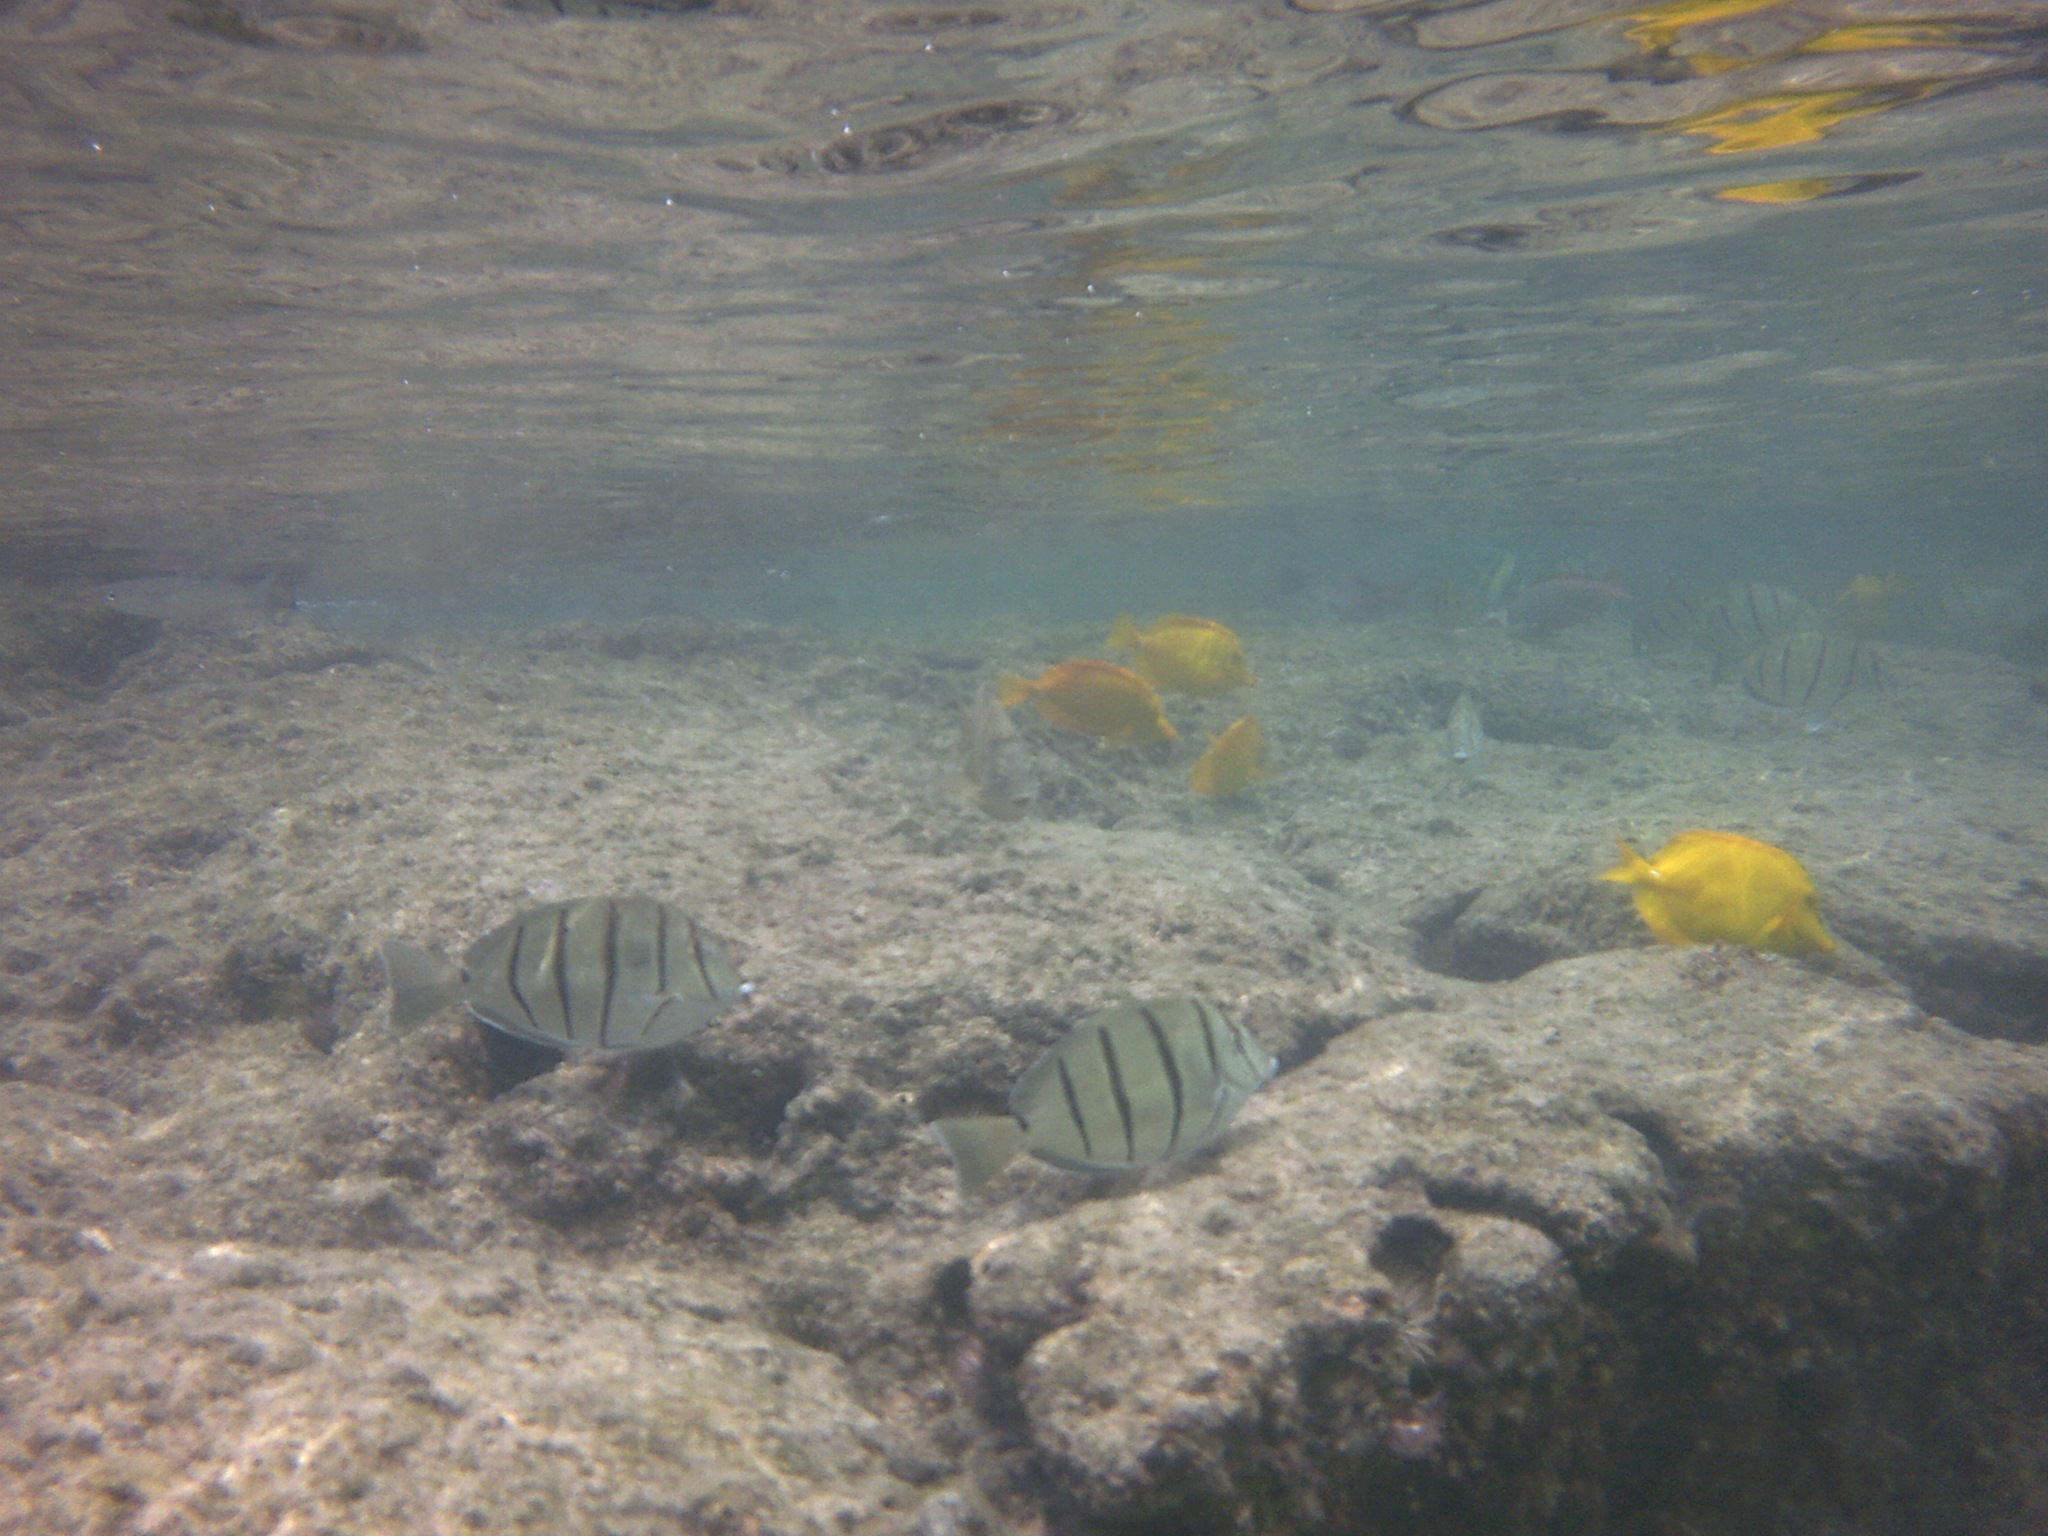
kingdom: Animalia
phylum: Chordata
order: Perciformes
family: Acanthuridae
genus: Acanthurus
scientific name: Acanthurus triostegus
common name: Convict surgeonfish
